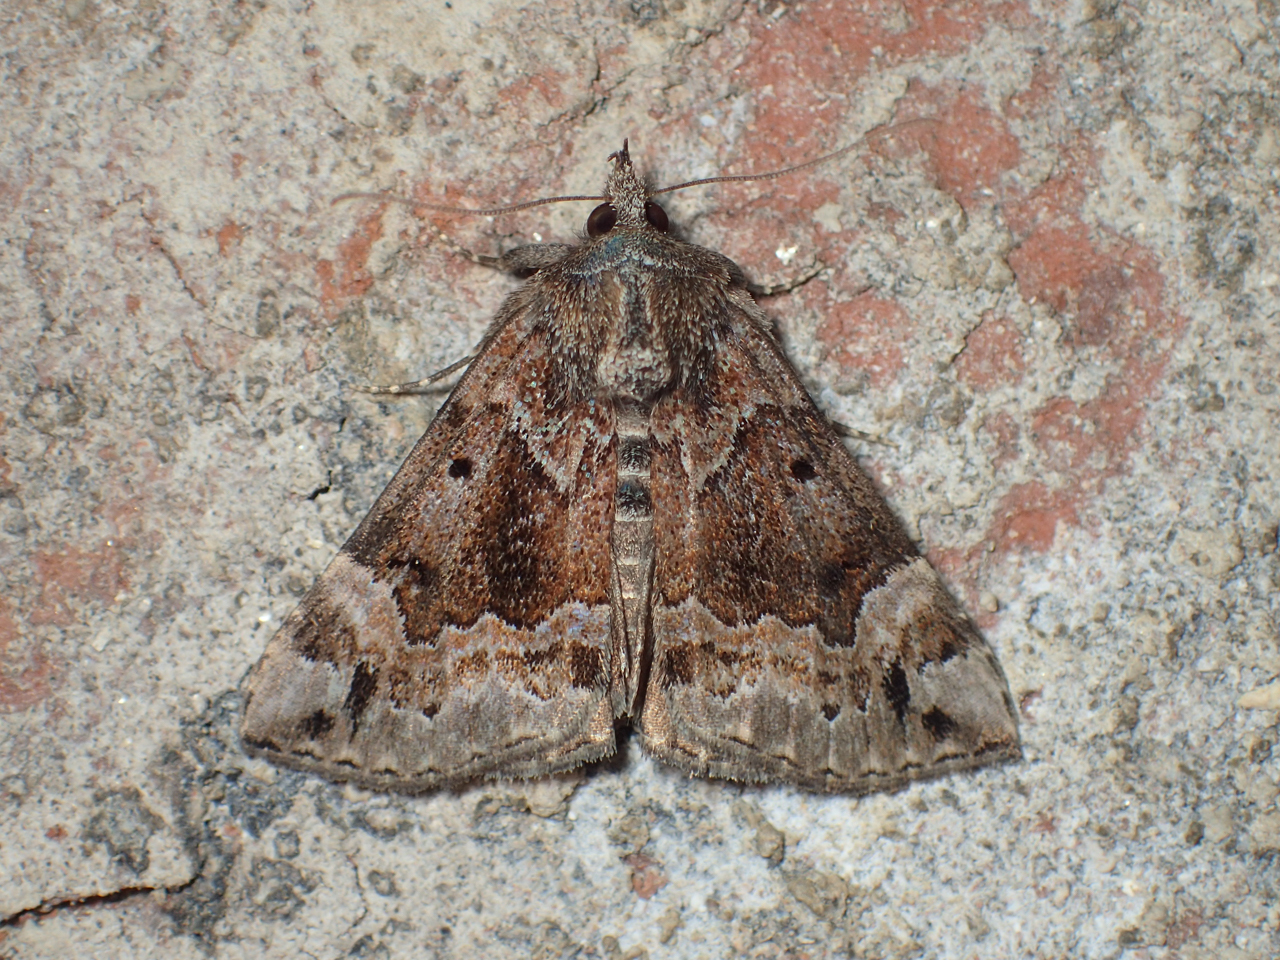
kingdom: Animalia
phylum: Arthropoda
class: Insecta
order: Lepidoptera
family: Erebidae
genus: Hypena
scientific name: Hypena palparia
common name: Mottled bomolocha moth
